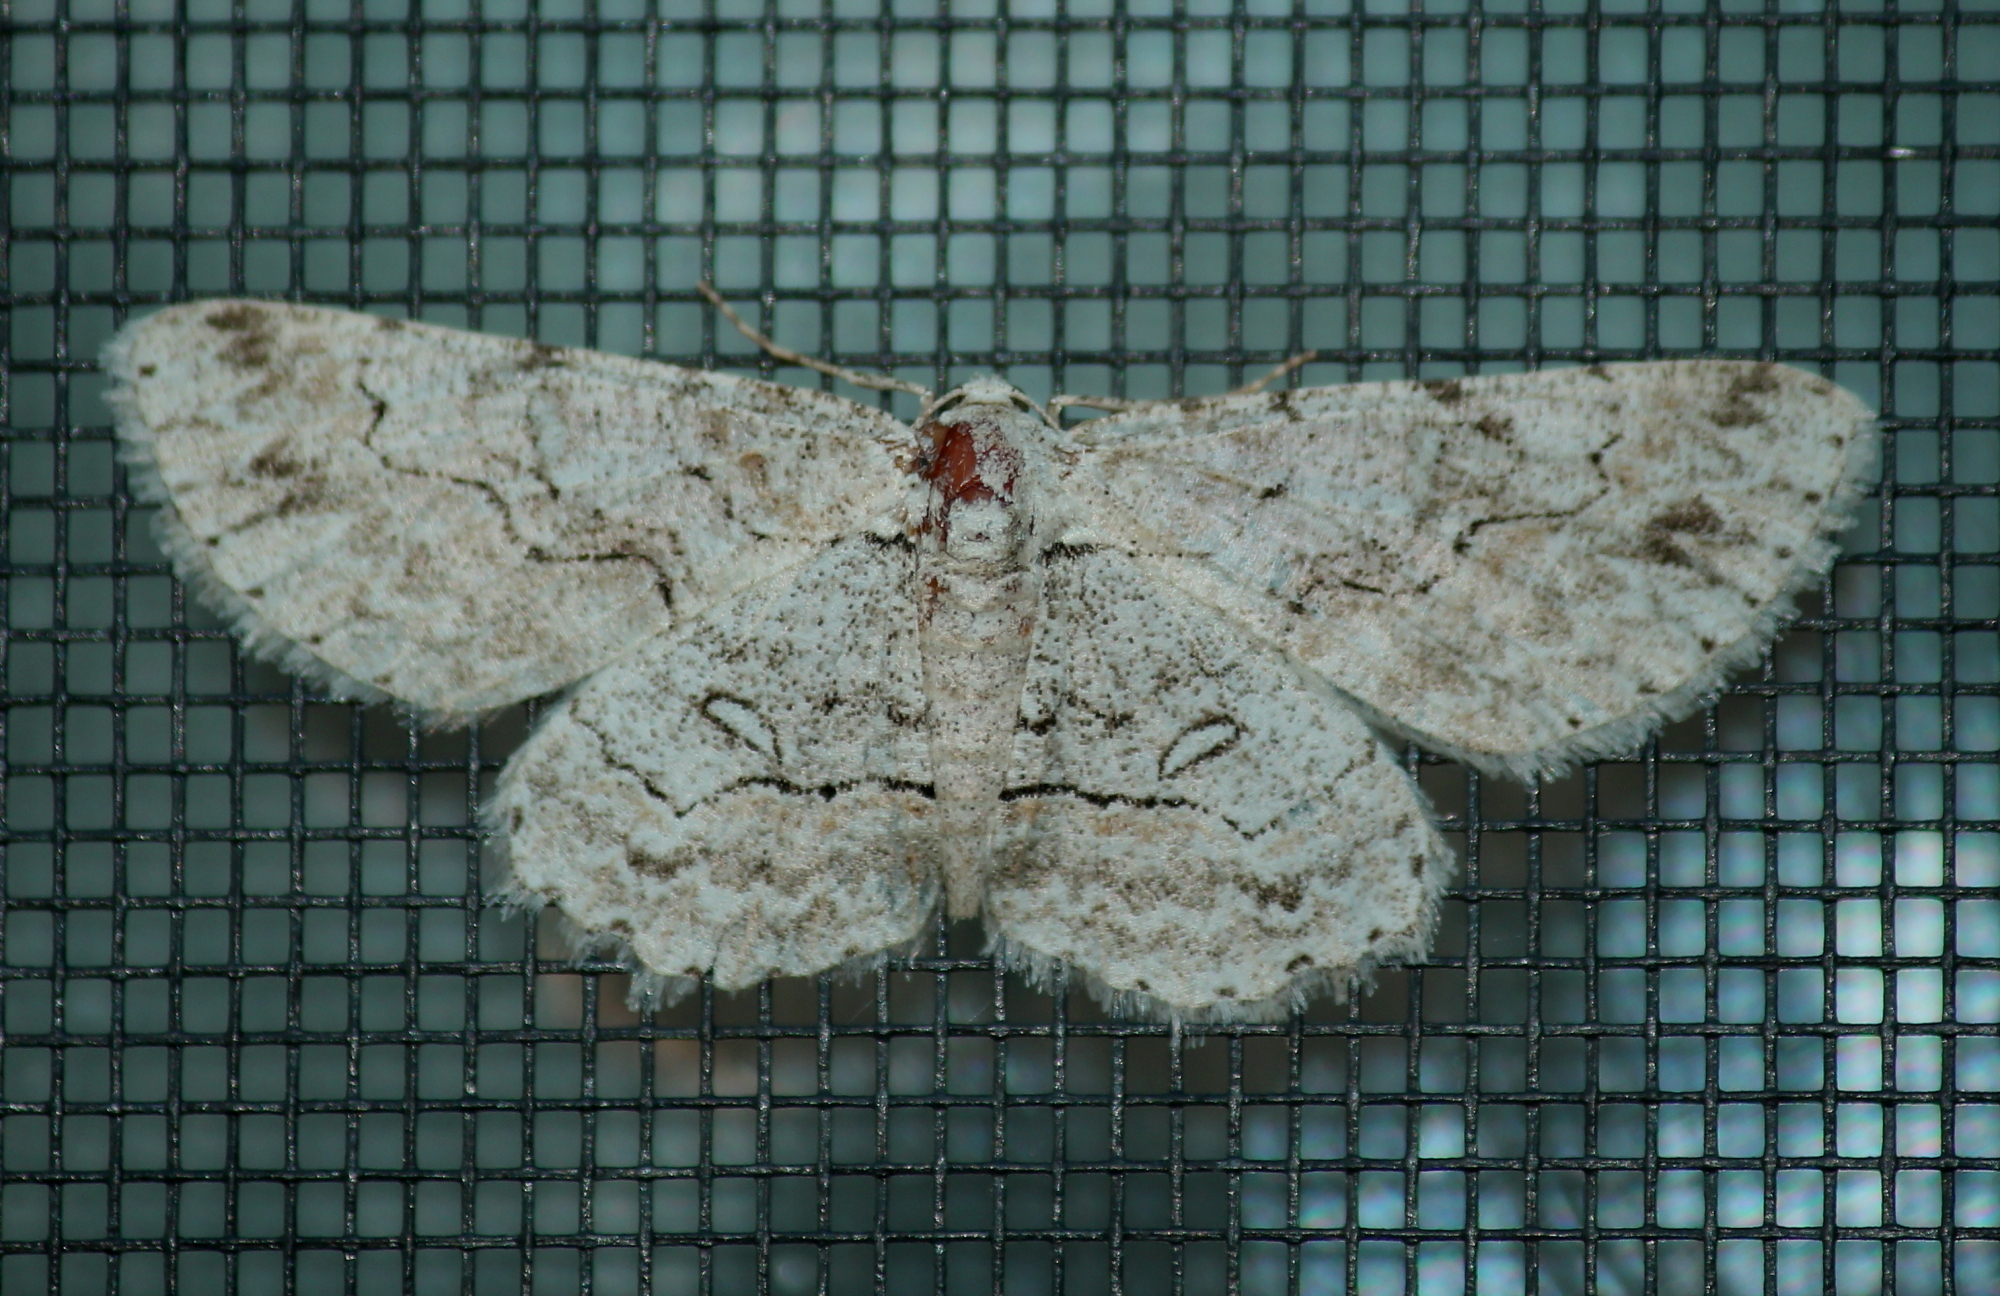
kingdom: Animalia
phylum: Arthropoda
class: Insecta
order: Lepidoptera
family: Geometridae
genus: Iridopsis
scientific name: Iridopsis defectaria
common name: Brown-shaded gray
